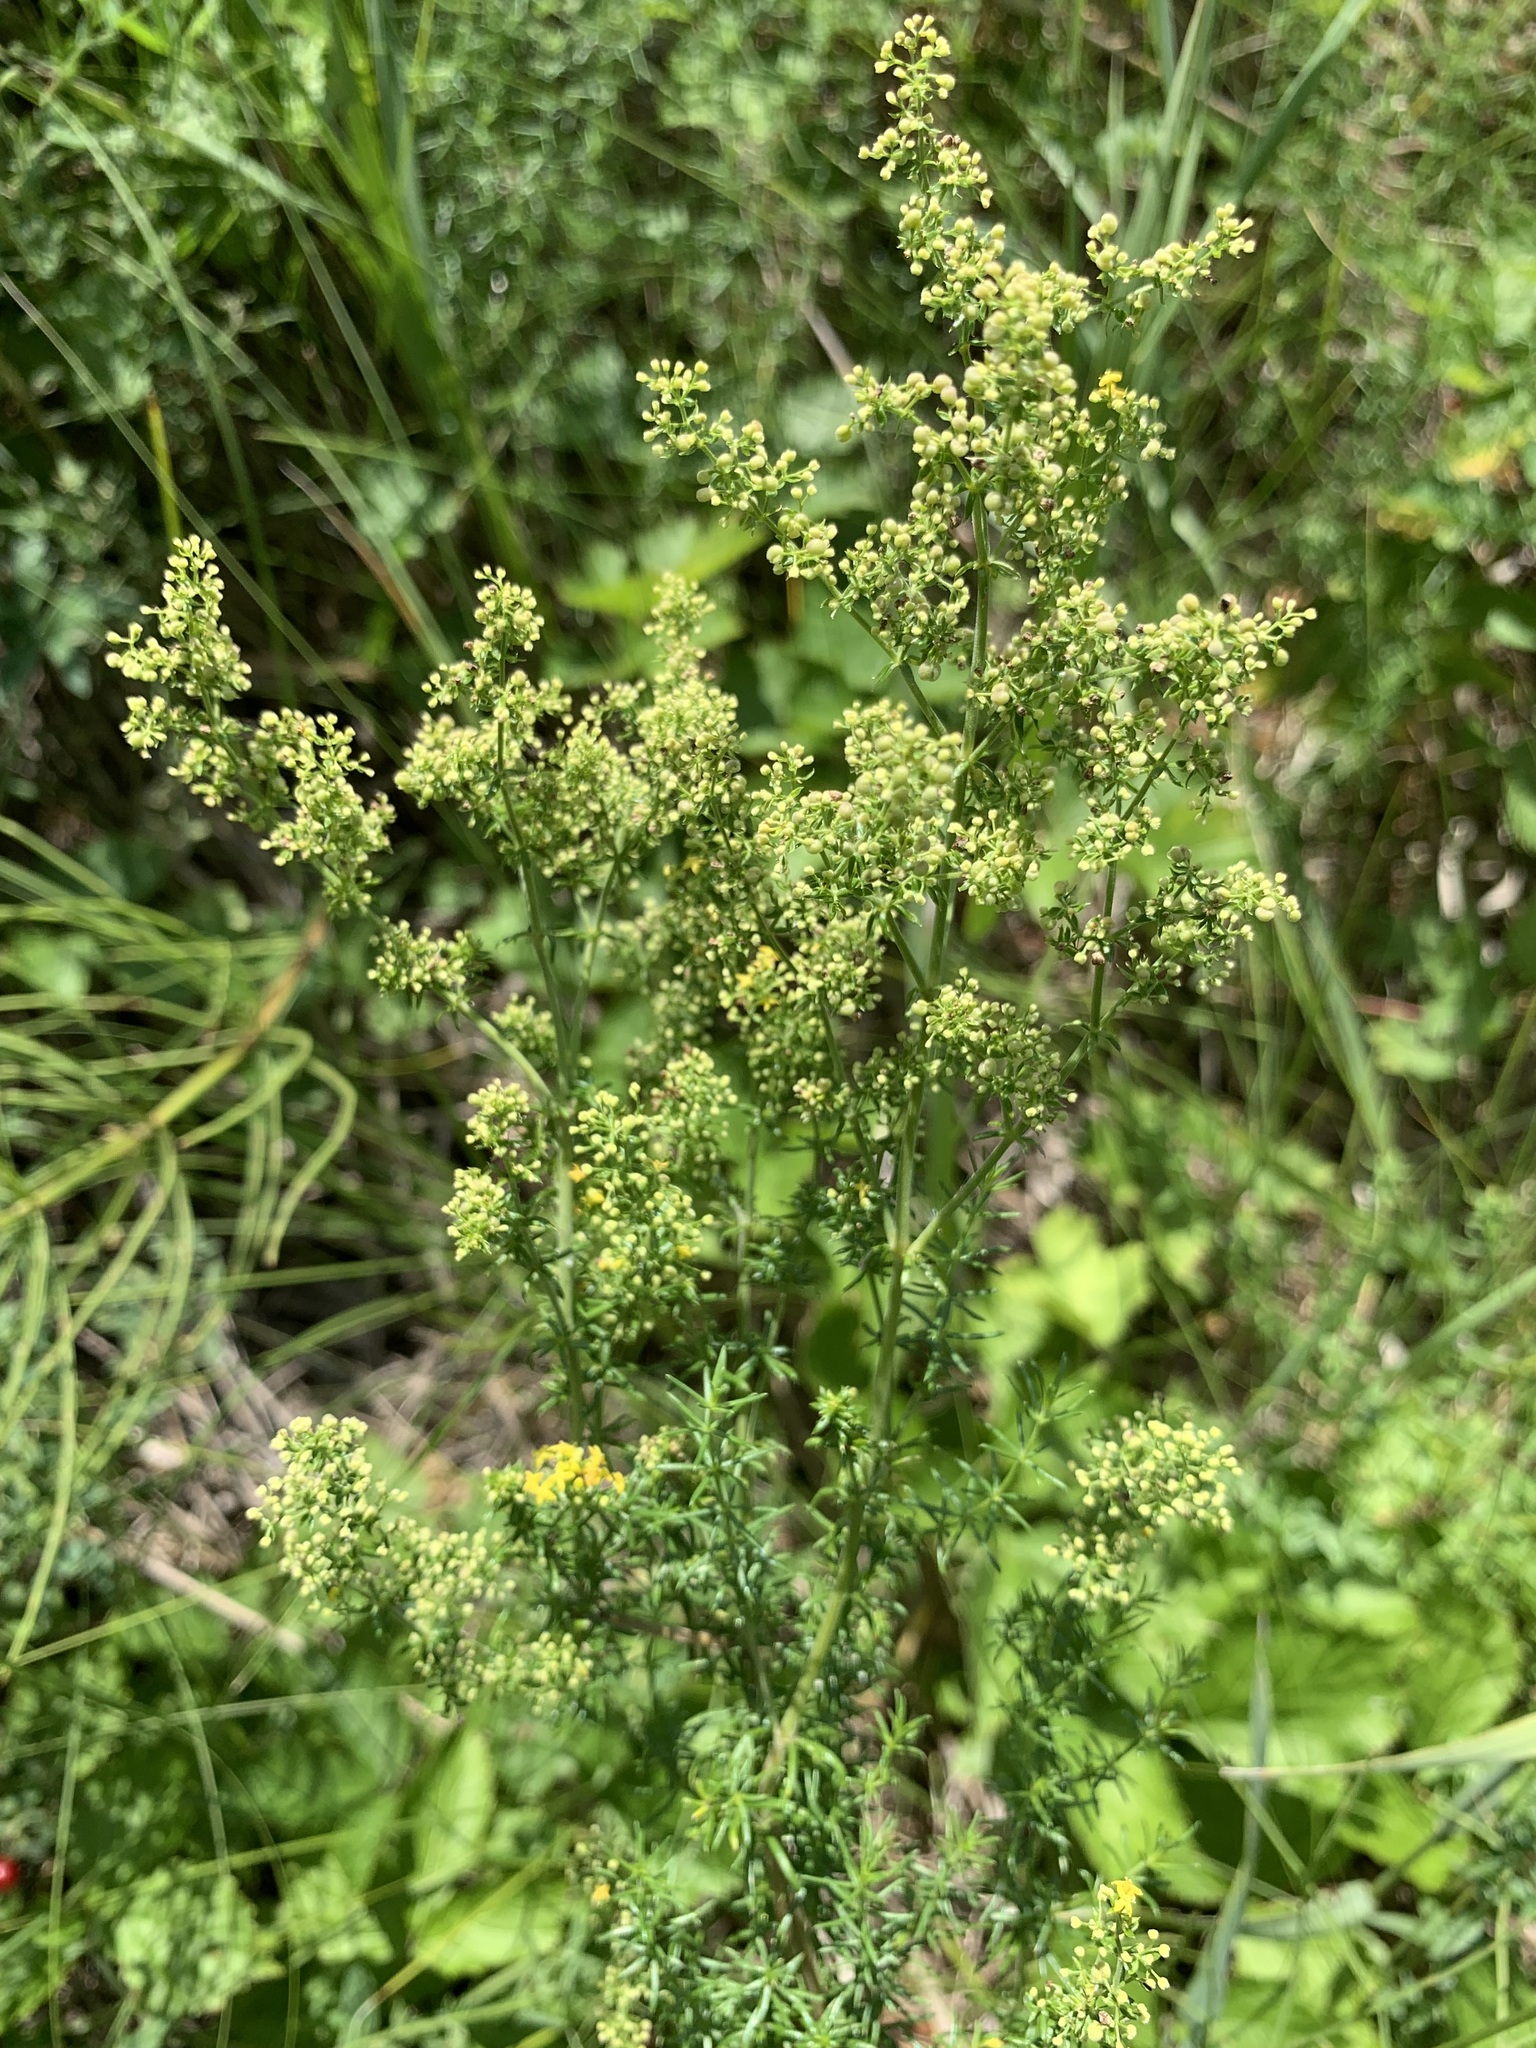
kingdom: Plantae
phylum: Tracheophyta
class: Magnoliopsida
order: Gentianales
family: Rubiaceae
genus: Galium
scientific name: Galium verum
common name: Lady's bedstraw
